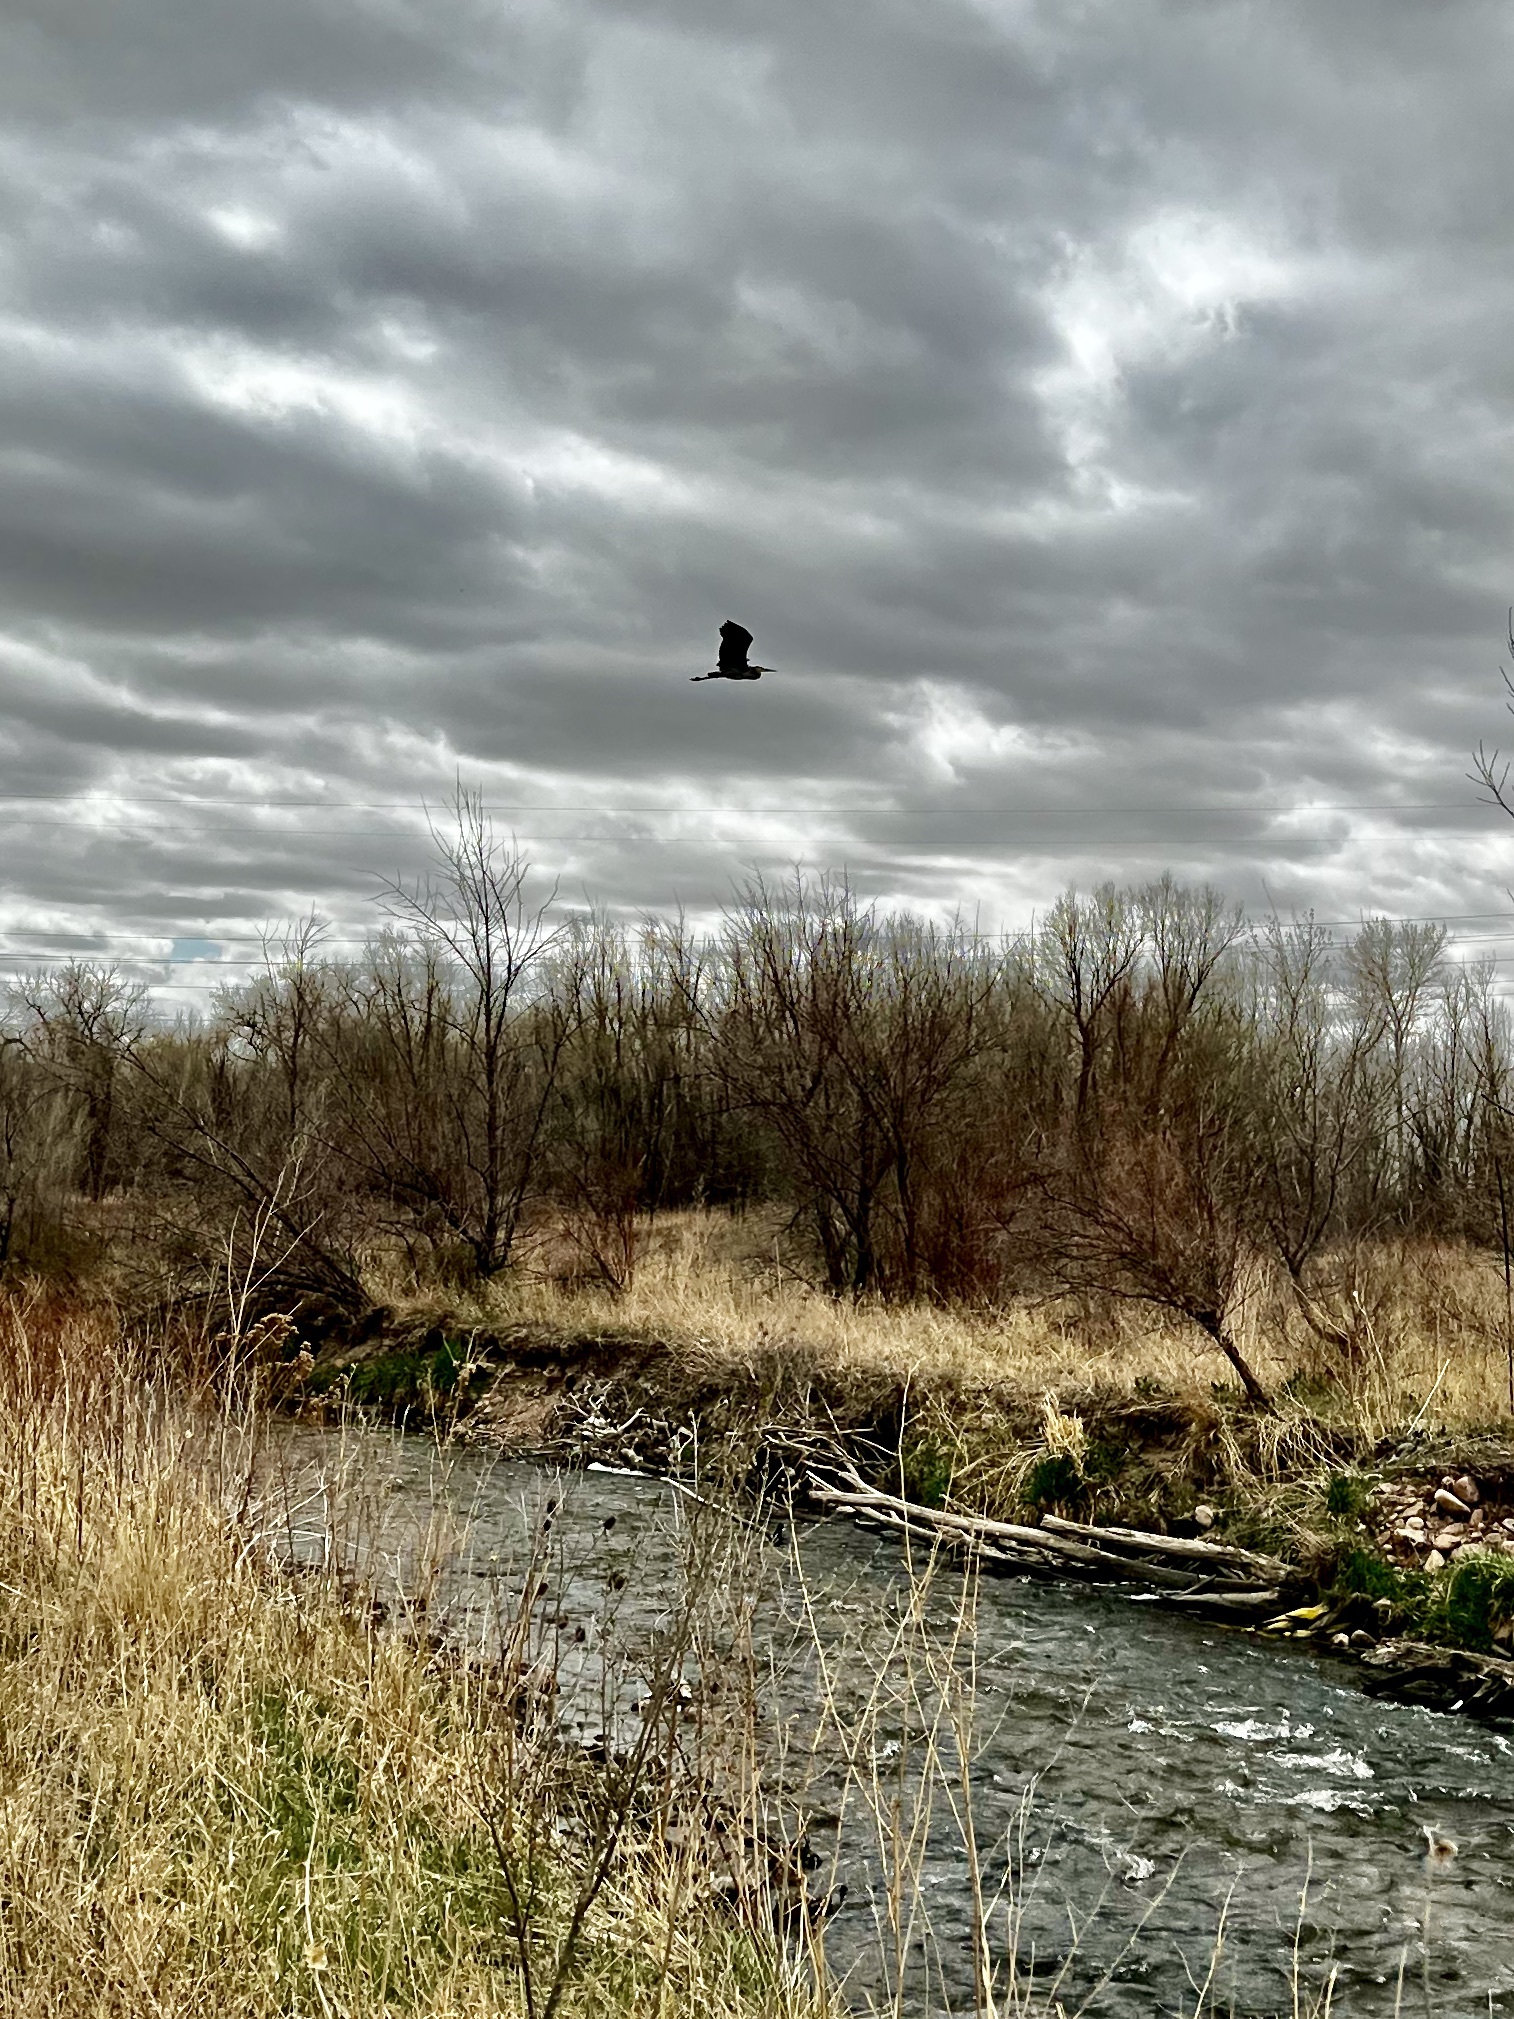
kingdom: Animalia
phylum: Chordata
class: Aves
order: Pelecaniformes
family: Ardeidae
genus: Ardea
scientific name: Ardea herodias
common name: Great blue heron
